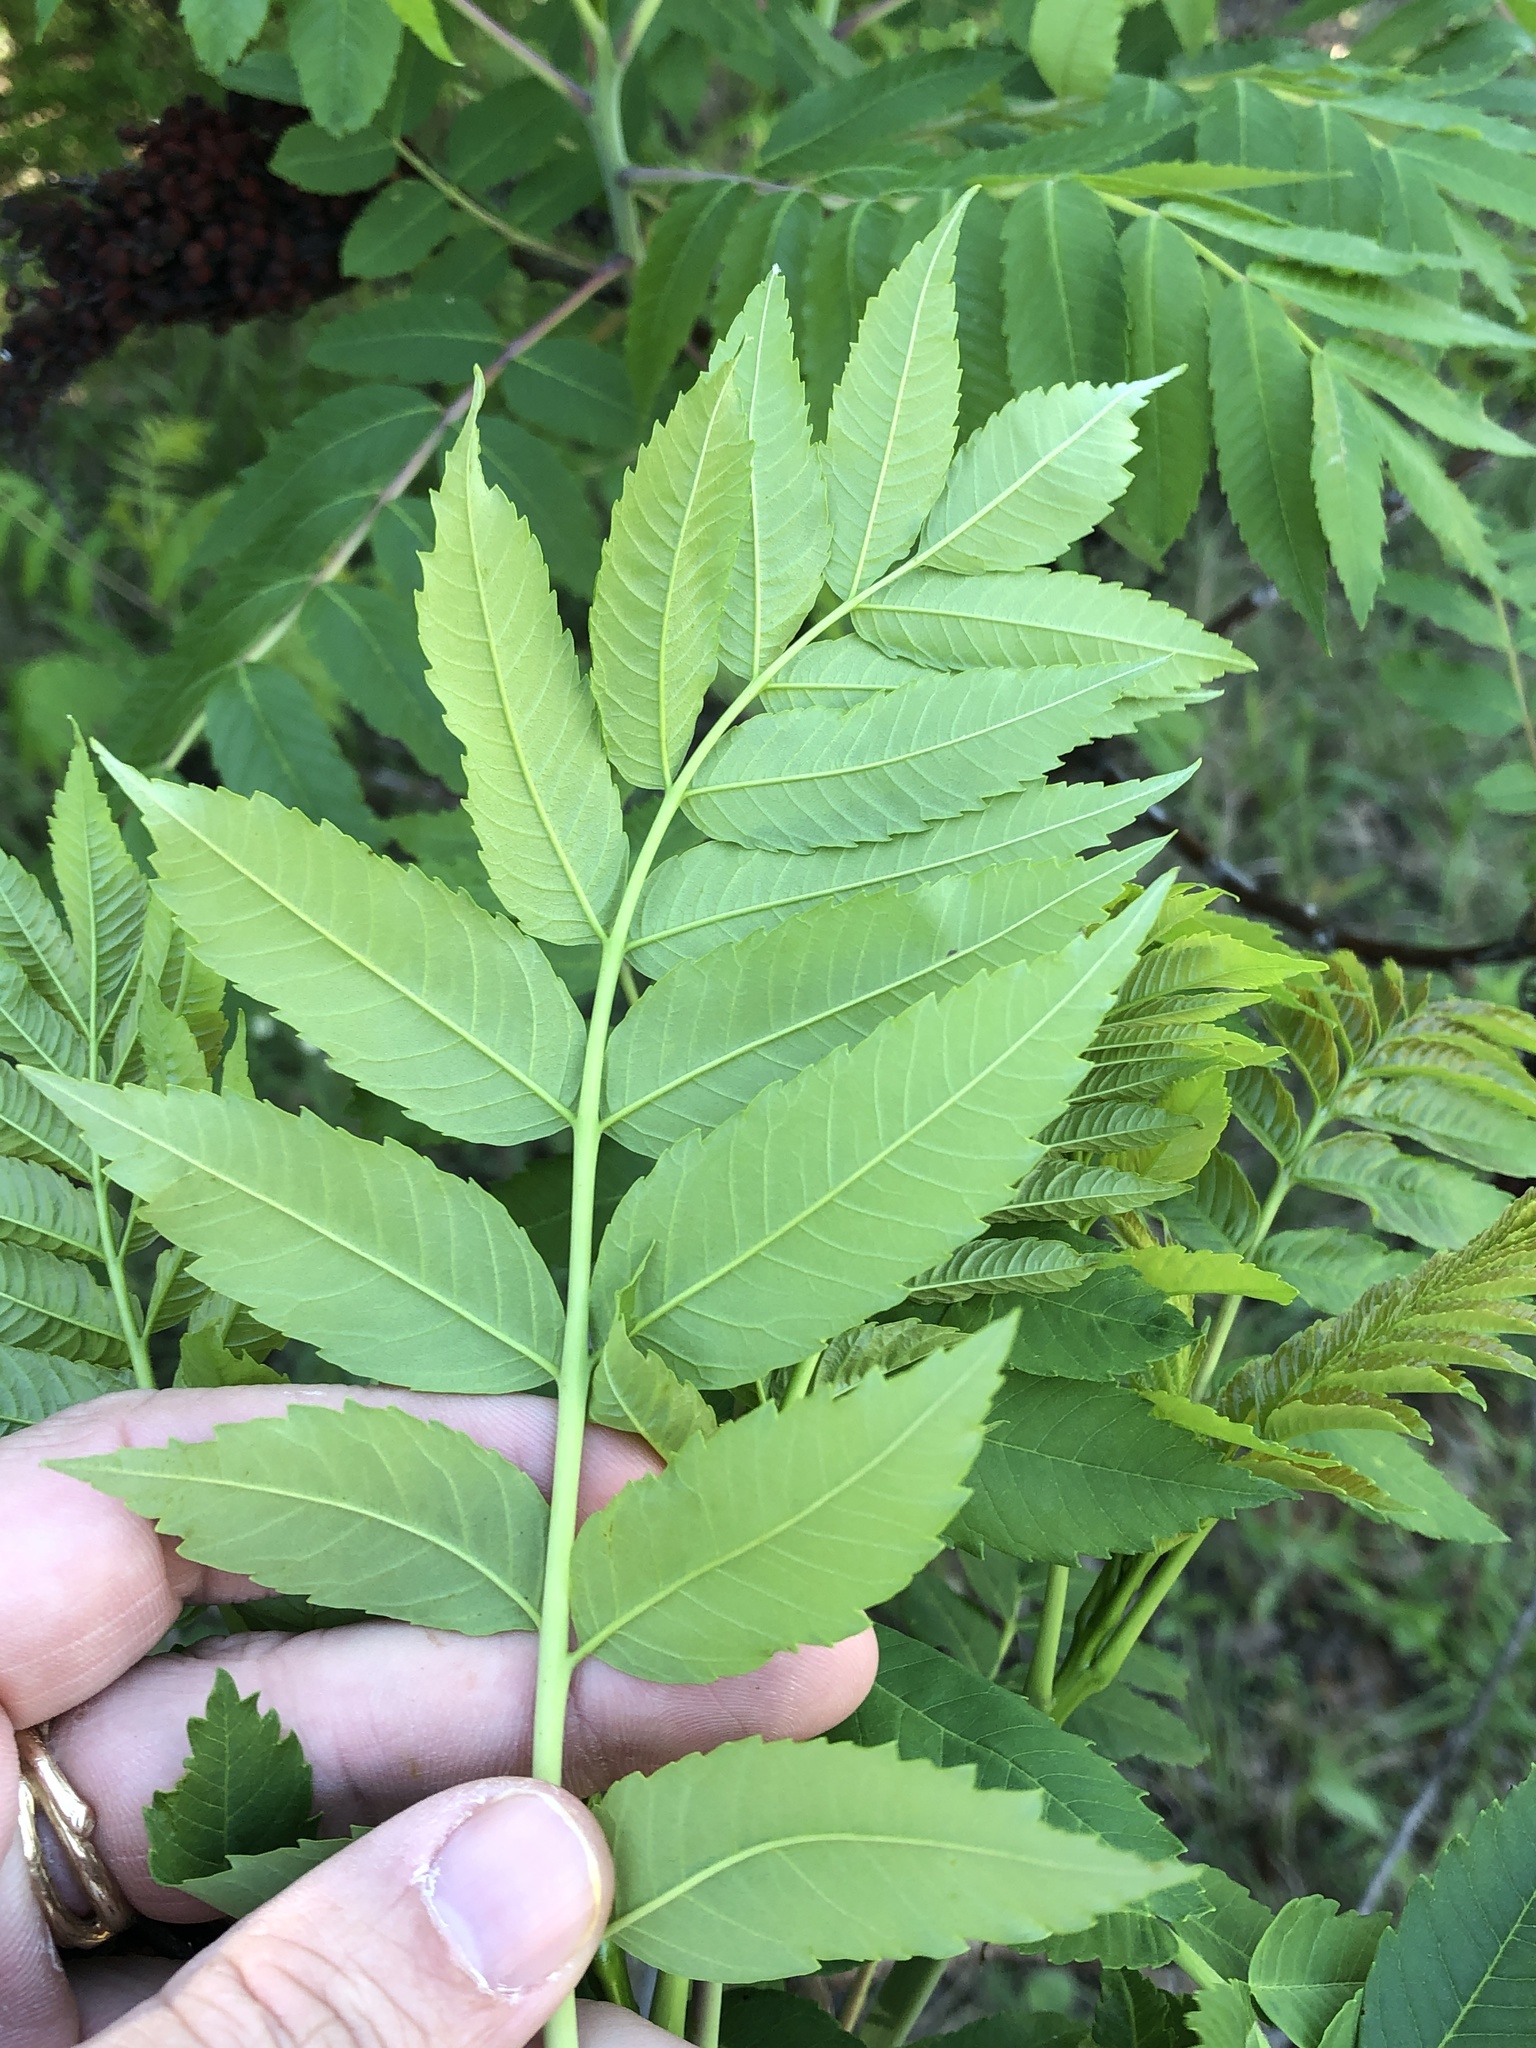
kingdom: Plantae
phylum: Tracheophyta
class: Magnoliopsida
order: Sapindales
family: Anacardiaceae
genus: Rhus
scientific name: Rhus glabra
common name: Scarlet sumac
